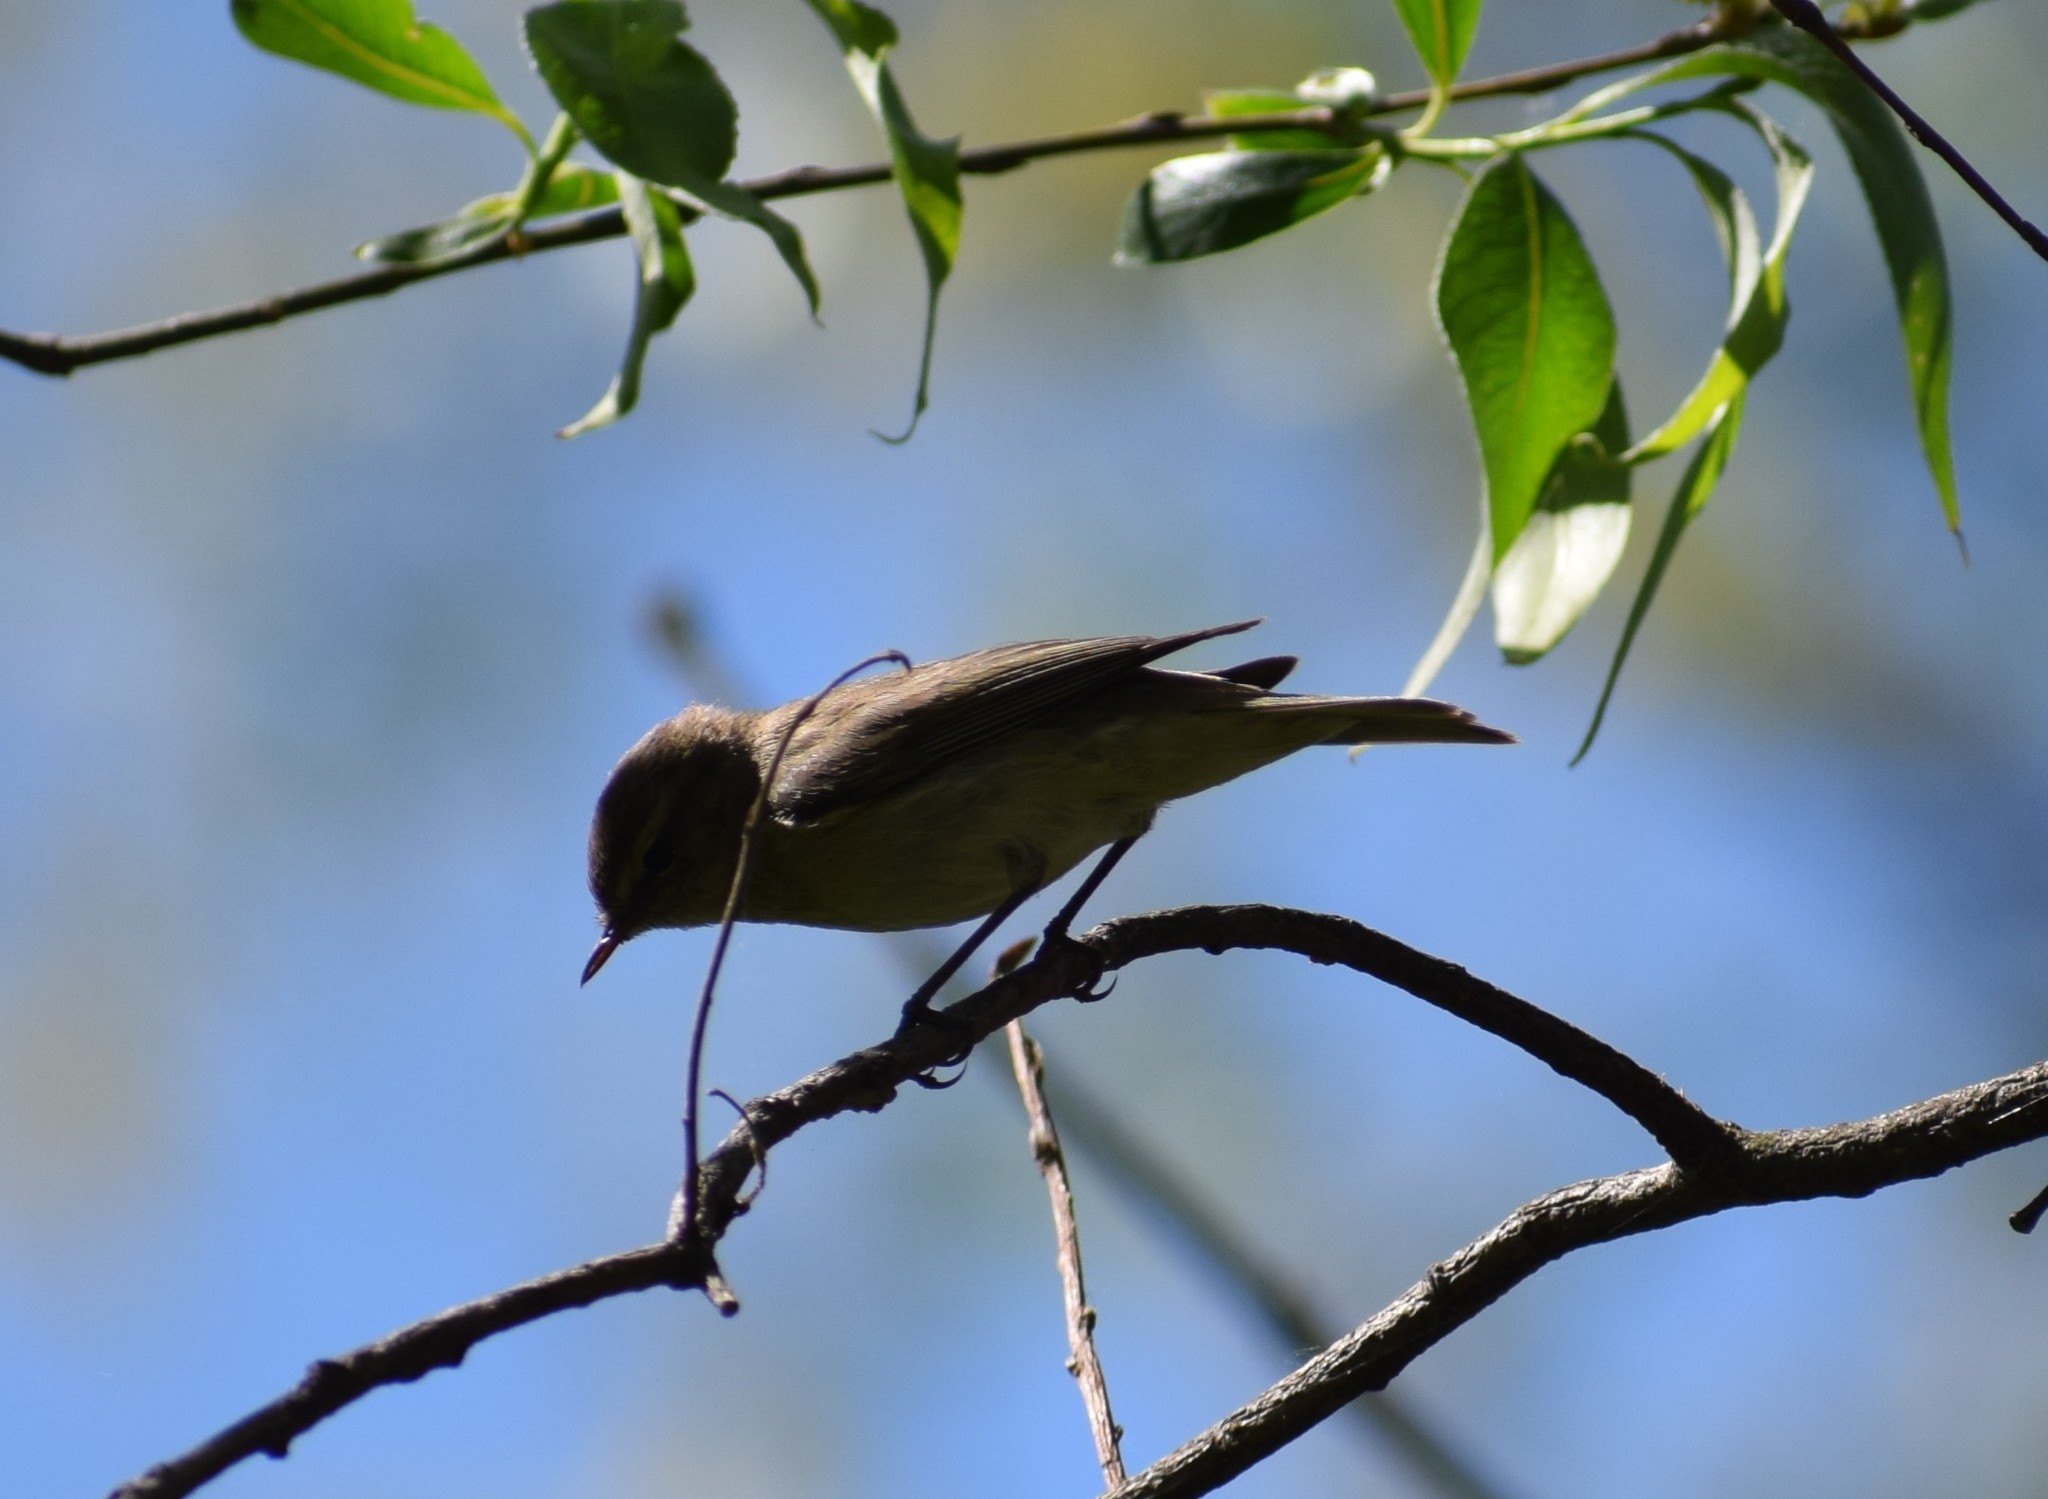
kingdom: Animalia
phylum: Chordata
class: Aves
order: Passeriformes
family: Phylloscopidae
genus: Phylloscopus
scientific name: Phylloscopus collybita
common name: Common chiffchaff
